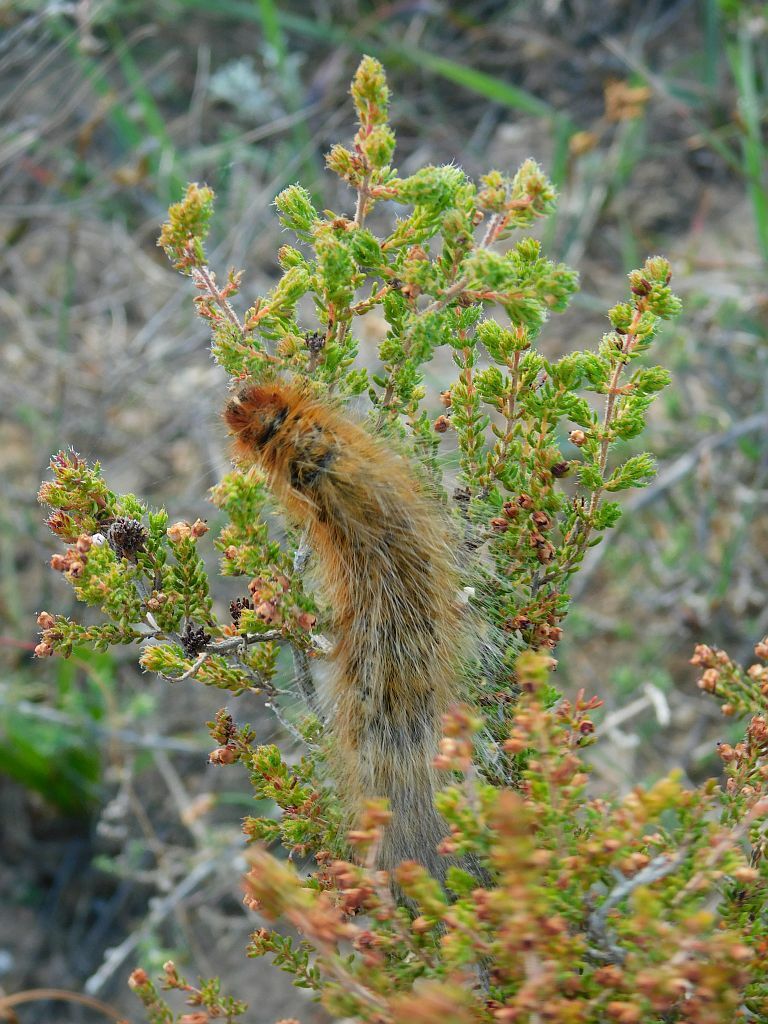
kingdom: Animalia
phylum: Arthropoda
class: Insecta
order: Lepidoptera
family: Lasiocampidae
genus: Mesocelis
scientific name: Mesocelis monticola
